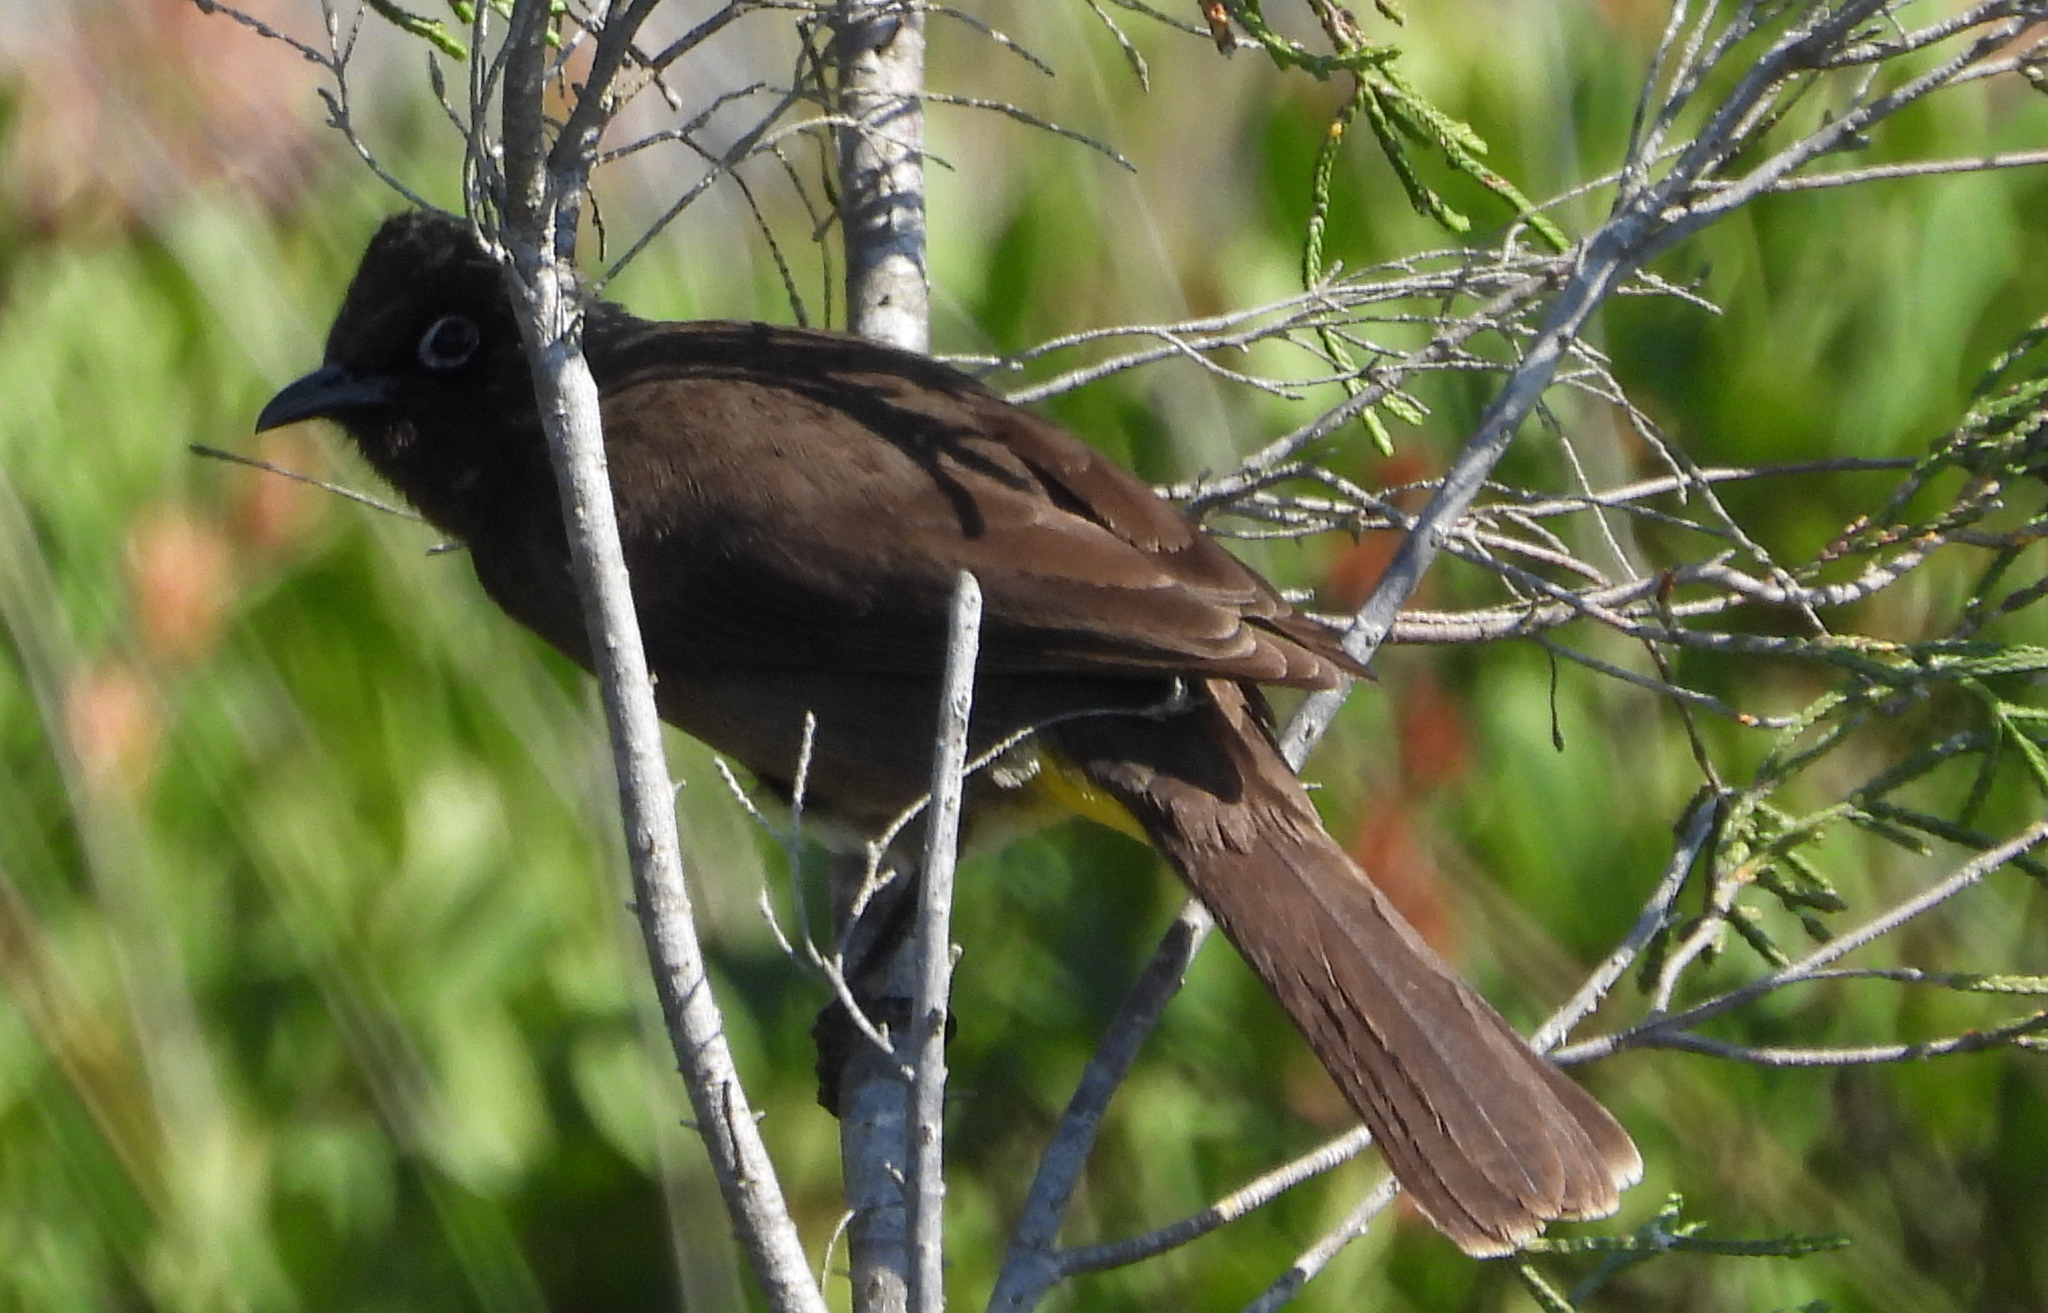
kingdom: Animalia
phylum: Chordata
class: Aves
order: Passeriformes
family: Pycnonotidae
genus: Pycnonotus
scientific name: Pycnonotus capensis
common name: Cape bulbul
